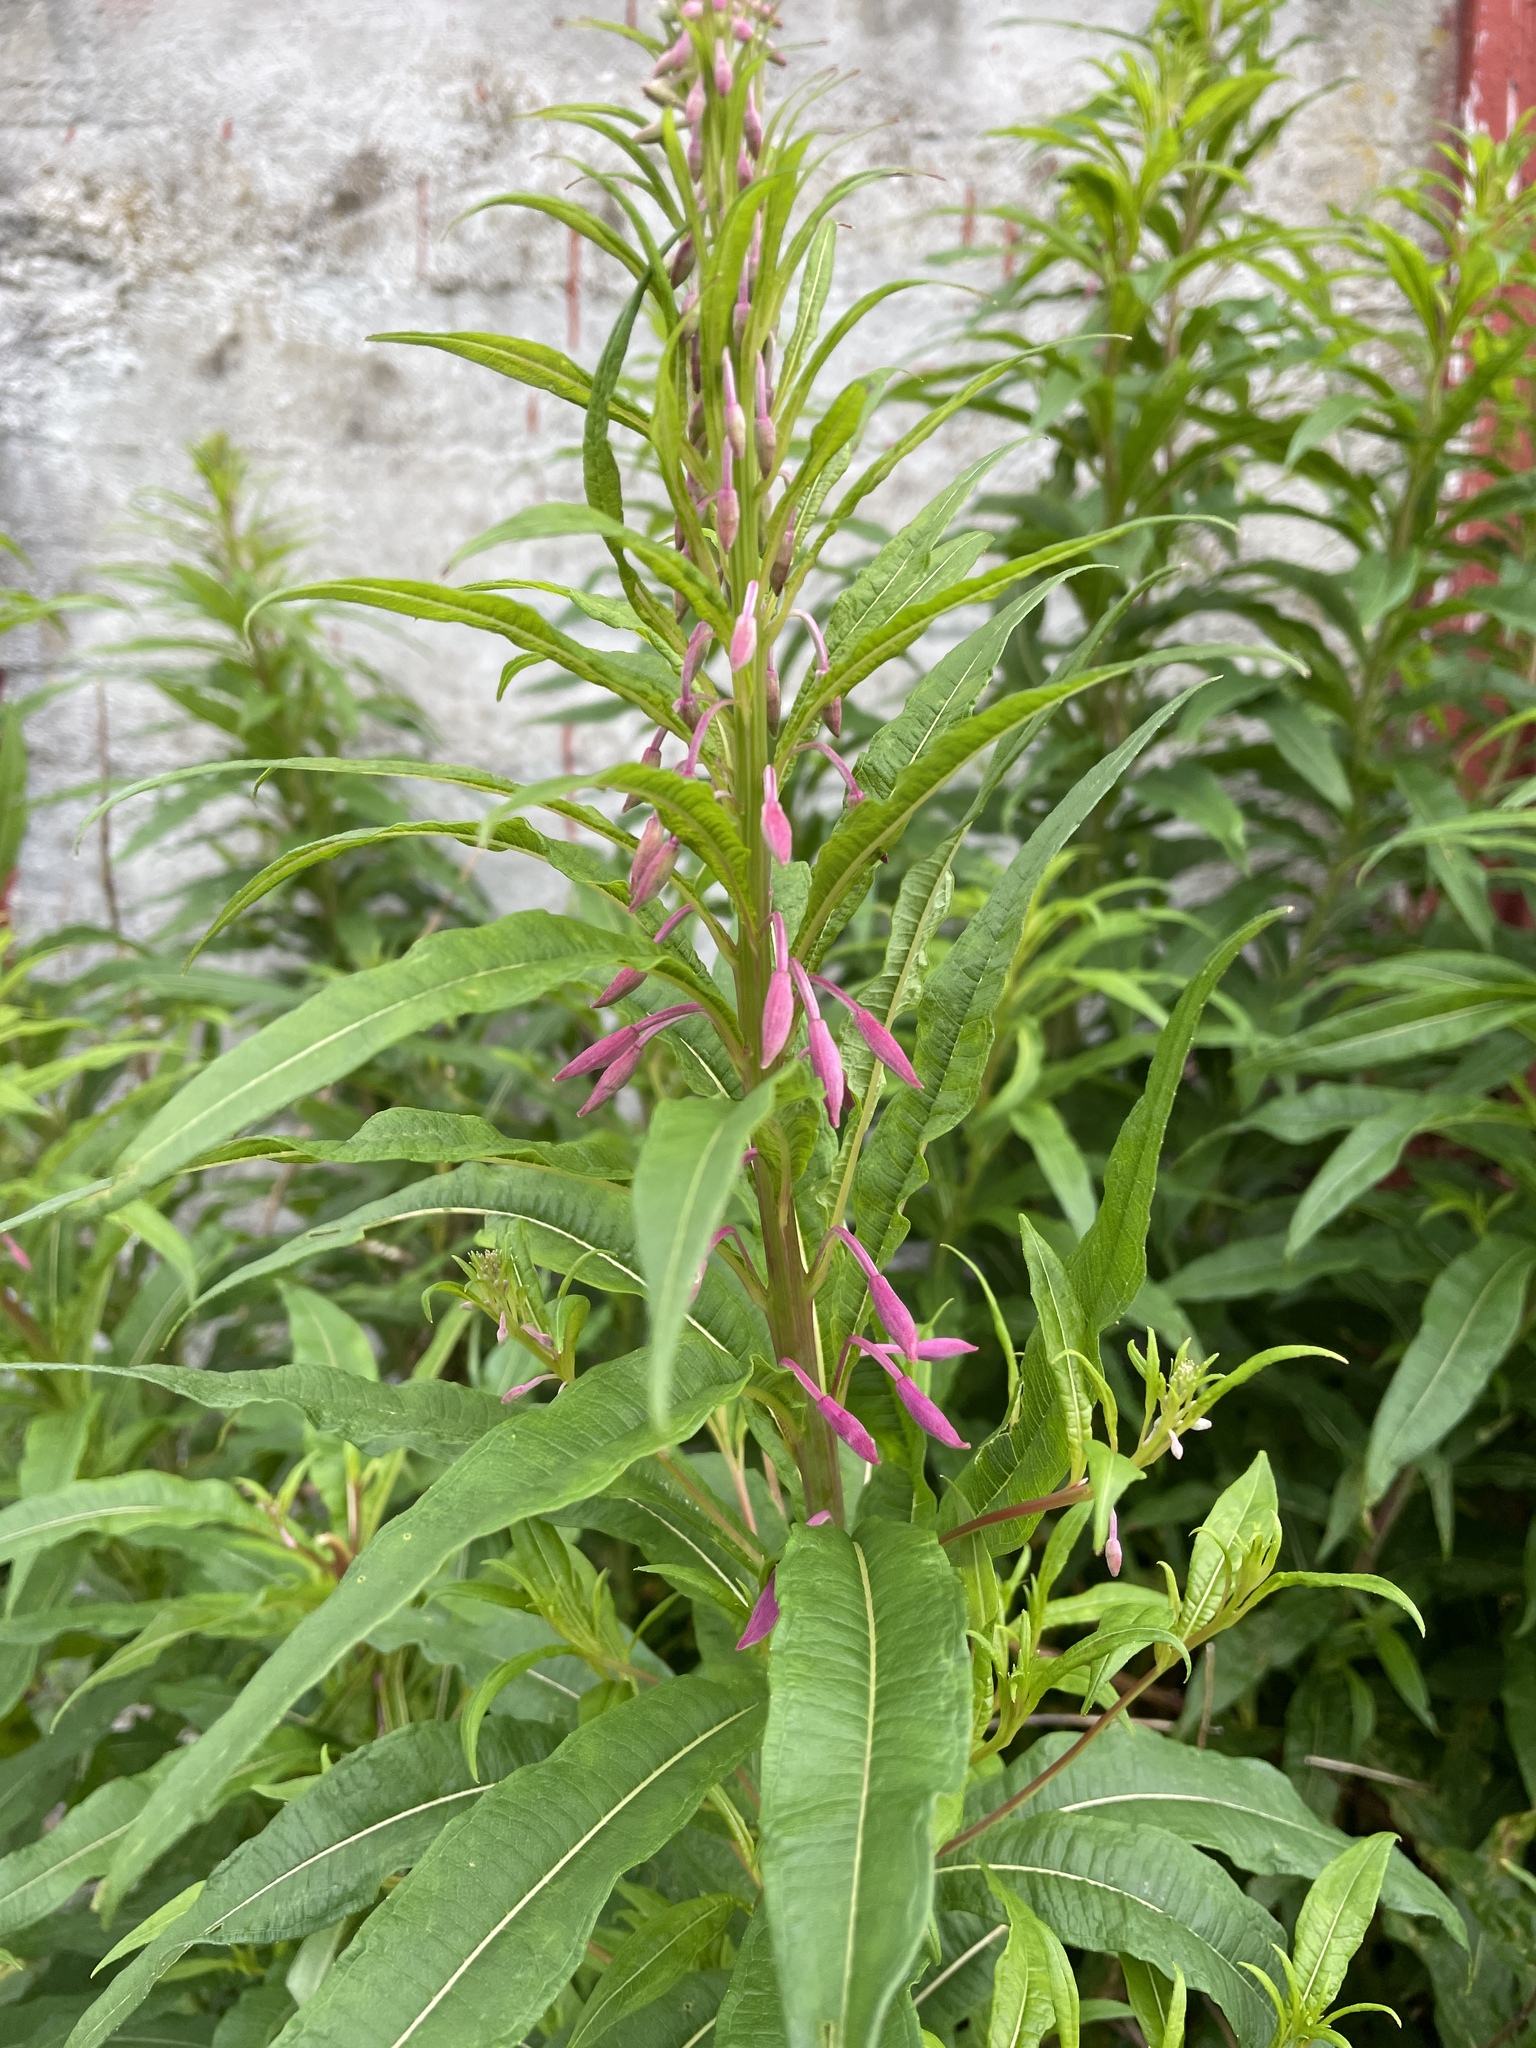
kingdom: Plantae
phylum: Tracheophyta
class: Magnoliopsida
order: Myrtales
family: Onagraceae
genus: Chamaenerion
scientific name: Chamaenerion angustifolium
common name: Fireweed
